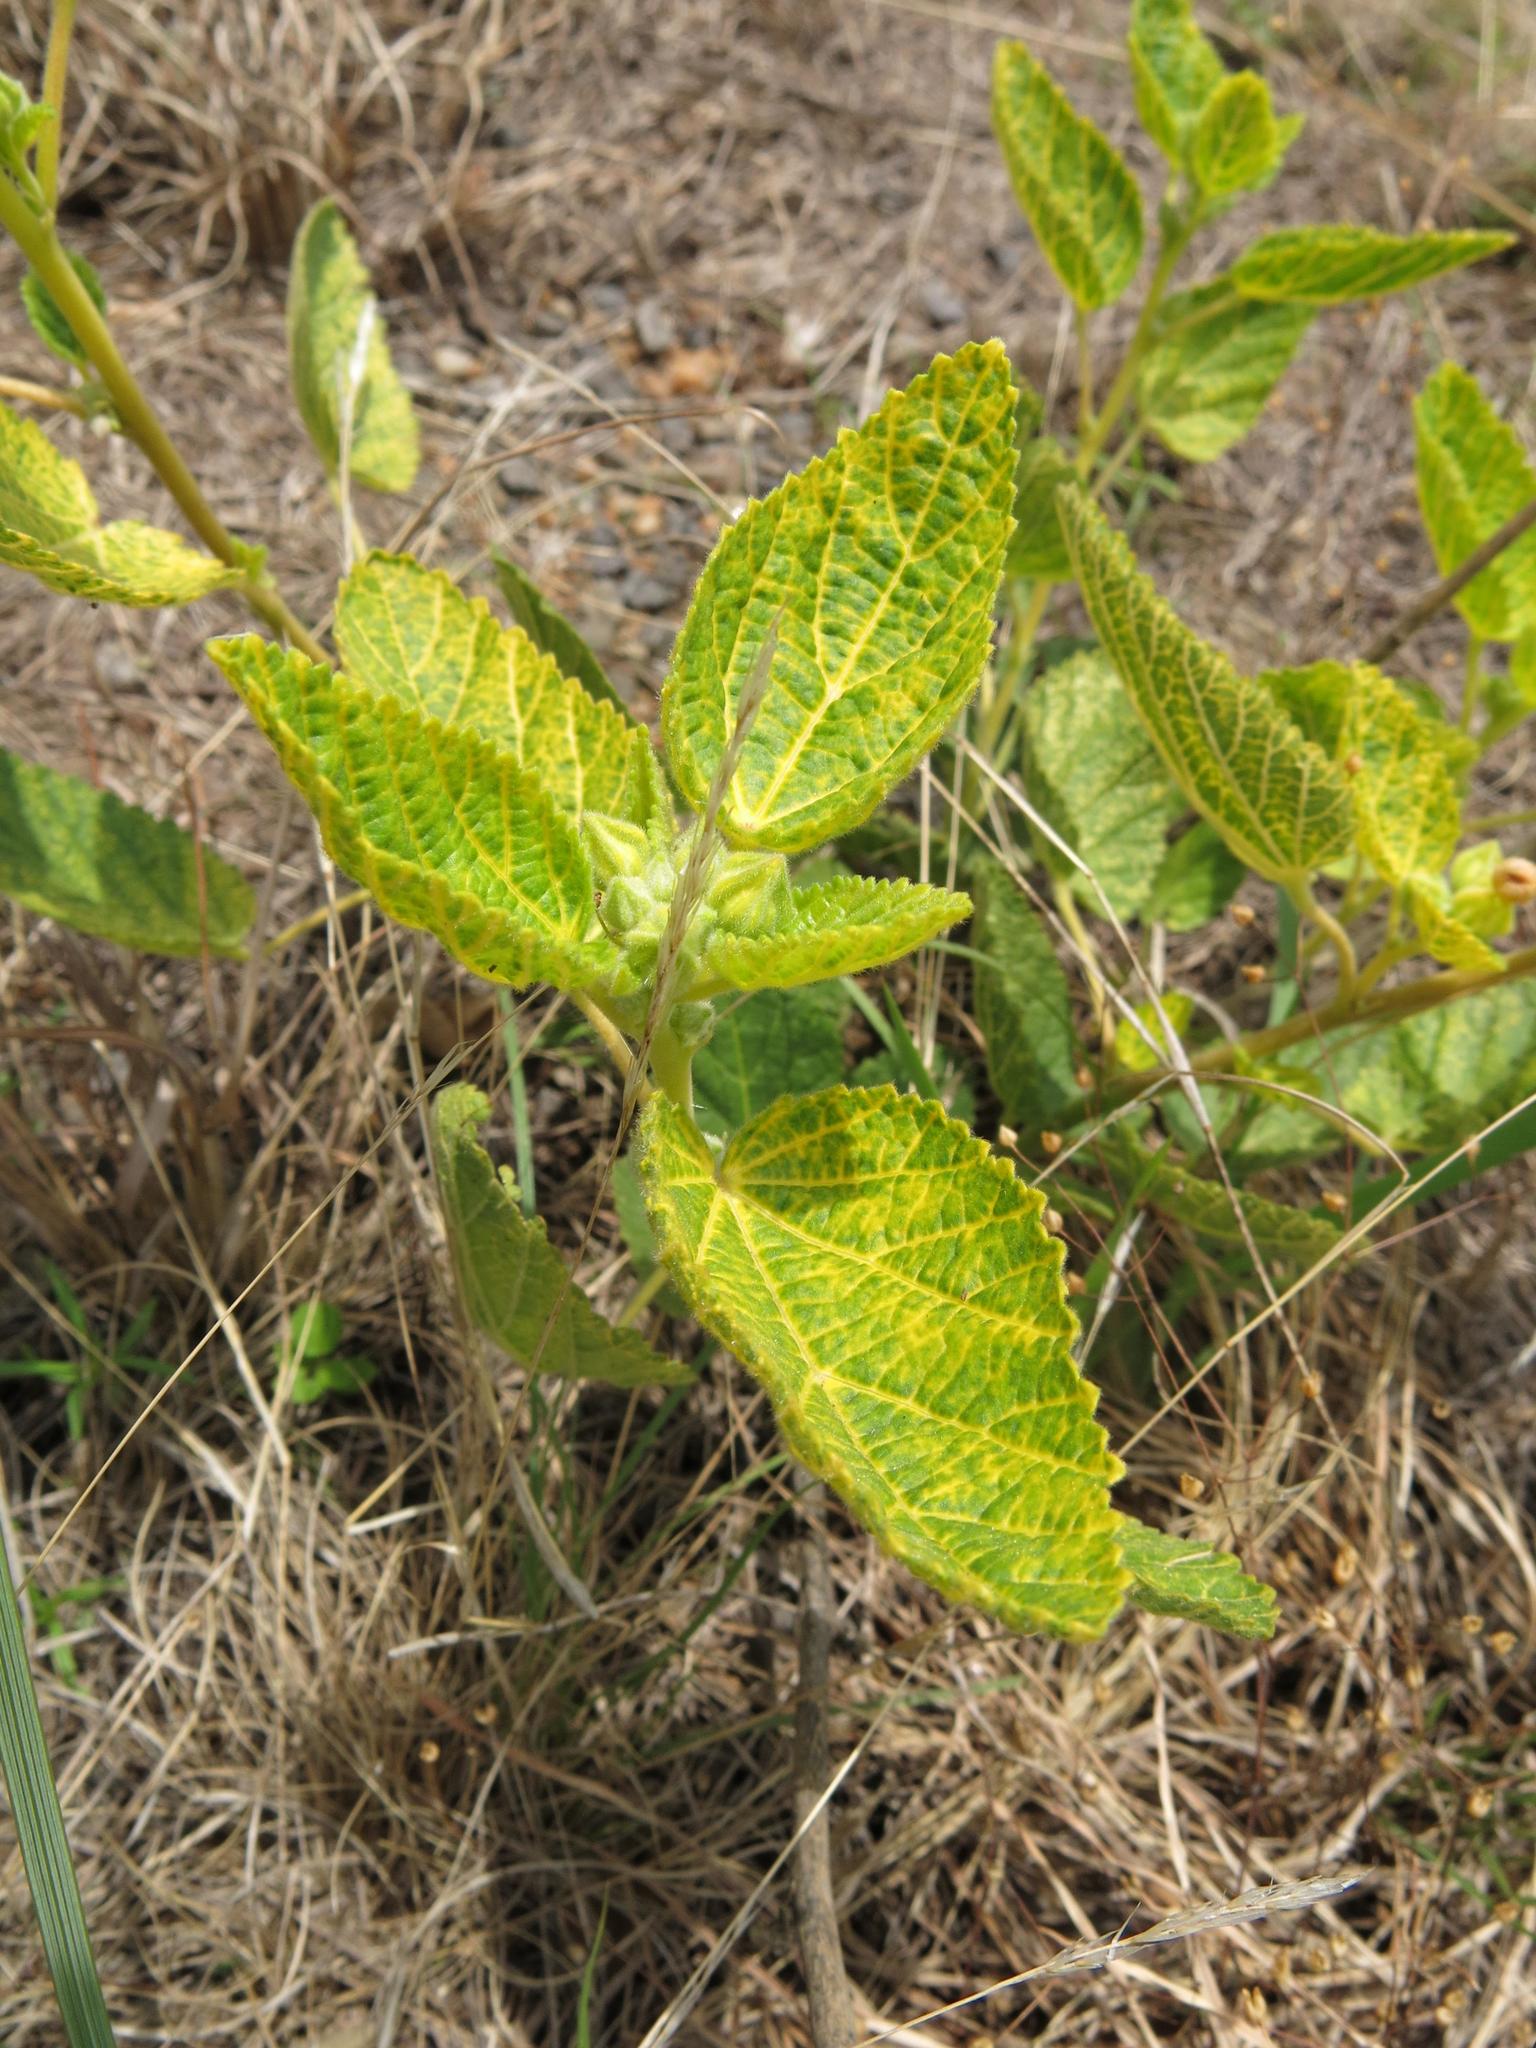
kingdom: Plantae
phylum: Tracheophyta
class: Magnoliopsida
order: Malvales
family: Malvaceae
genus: Sida
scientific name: Sida cordifolia
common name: Ilima
